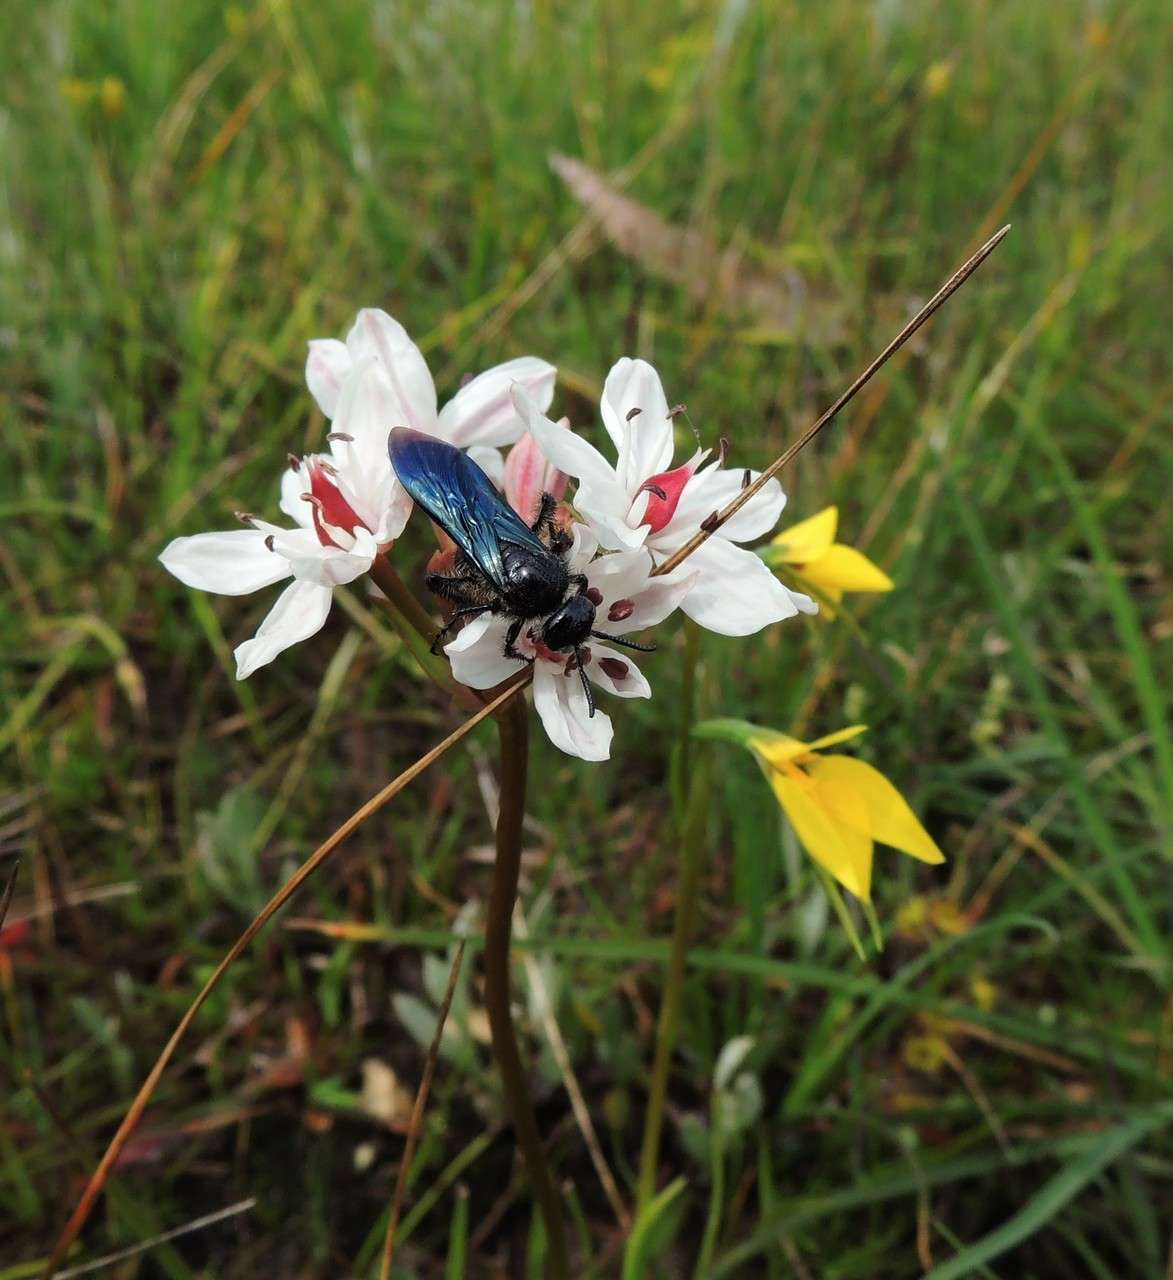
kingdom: Plantae
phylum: Tracheophyta
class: Liliopsida
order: Liliales
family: Colchicaceae
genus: Burchardia
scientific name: Burchardia umbellata
